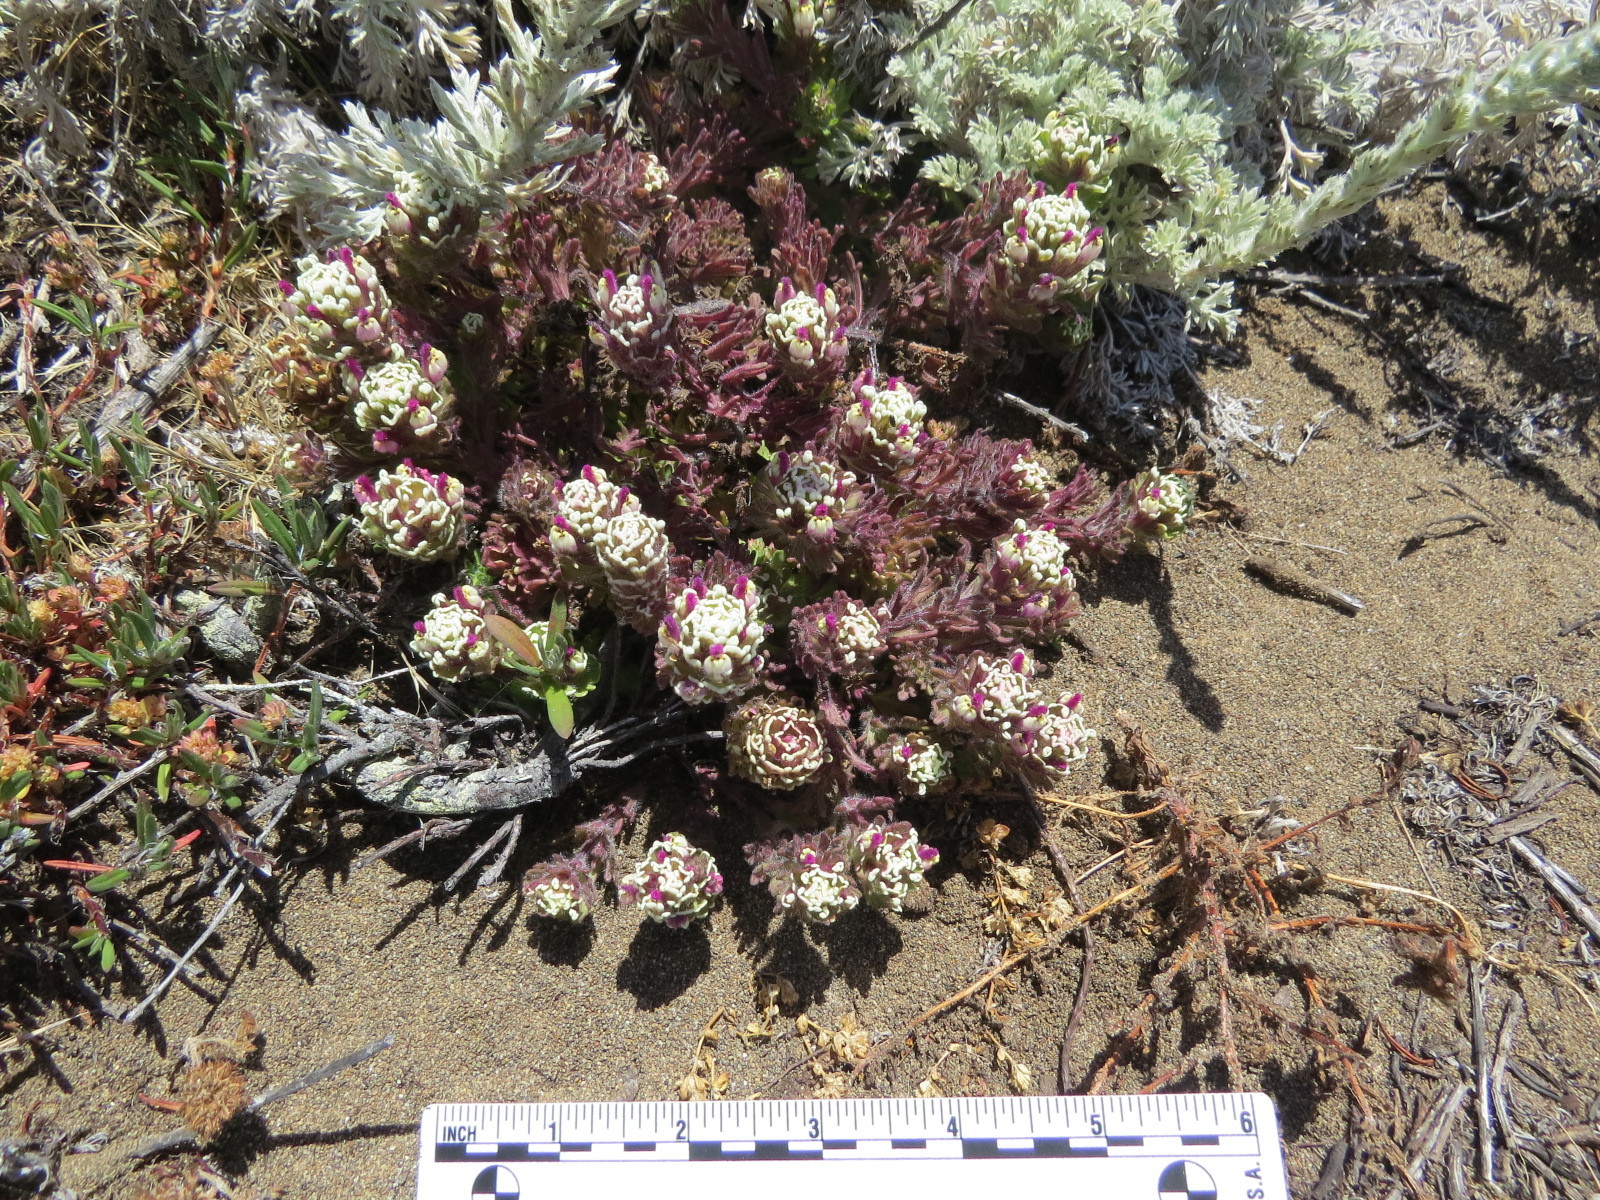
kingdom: Plantae
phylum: Tracheophyta
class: Magnoliopsida
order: Lamiales
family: Orobanchaceae
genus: Castilleja
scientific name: Castilleja exserta
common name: Purple owl-clover
